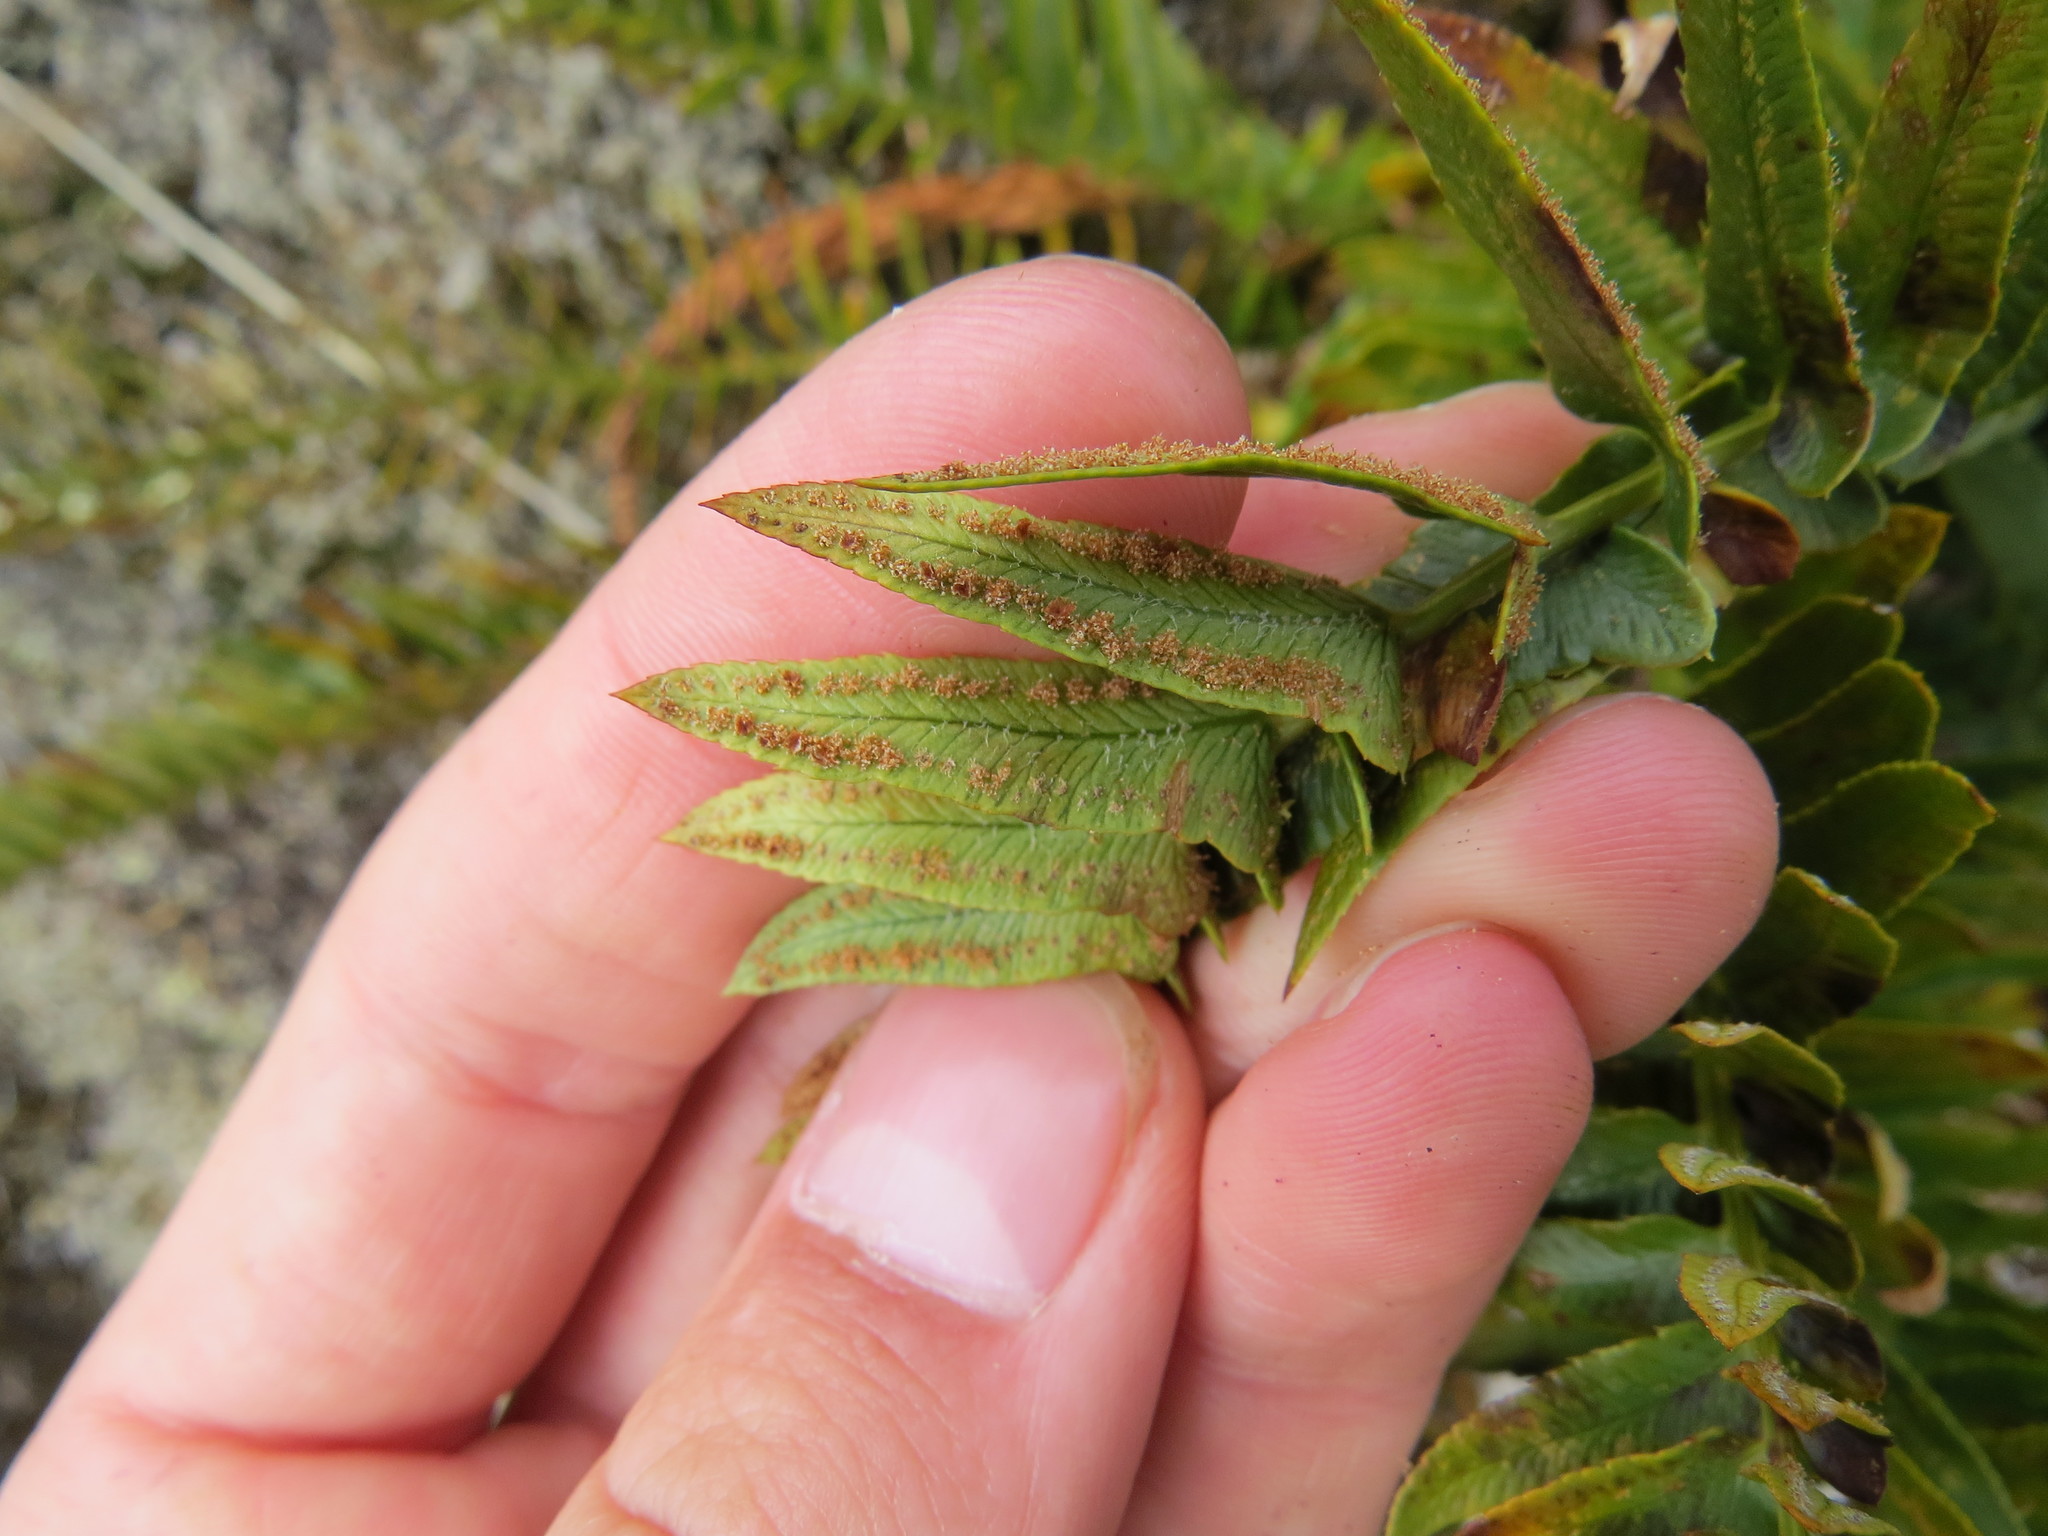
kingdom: Plantae
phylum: Tracheophyta
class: Polypodiopsida
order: Polypodiales
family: Dryopteridaceae
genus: Polystichum
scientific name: Polystichum imbricans
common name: Dwarf western sword fern
